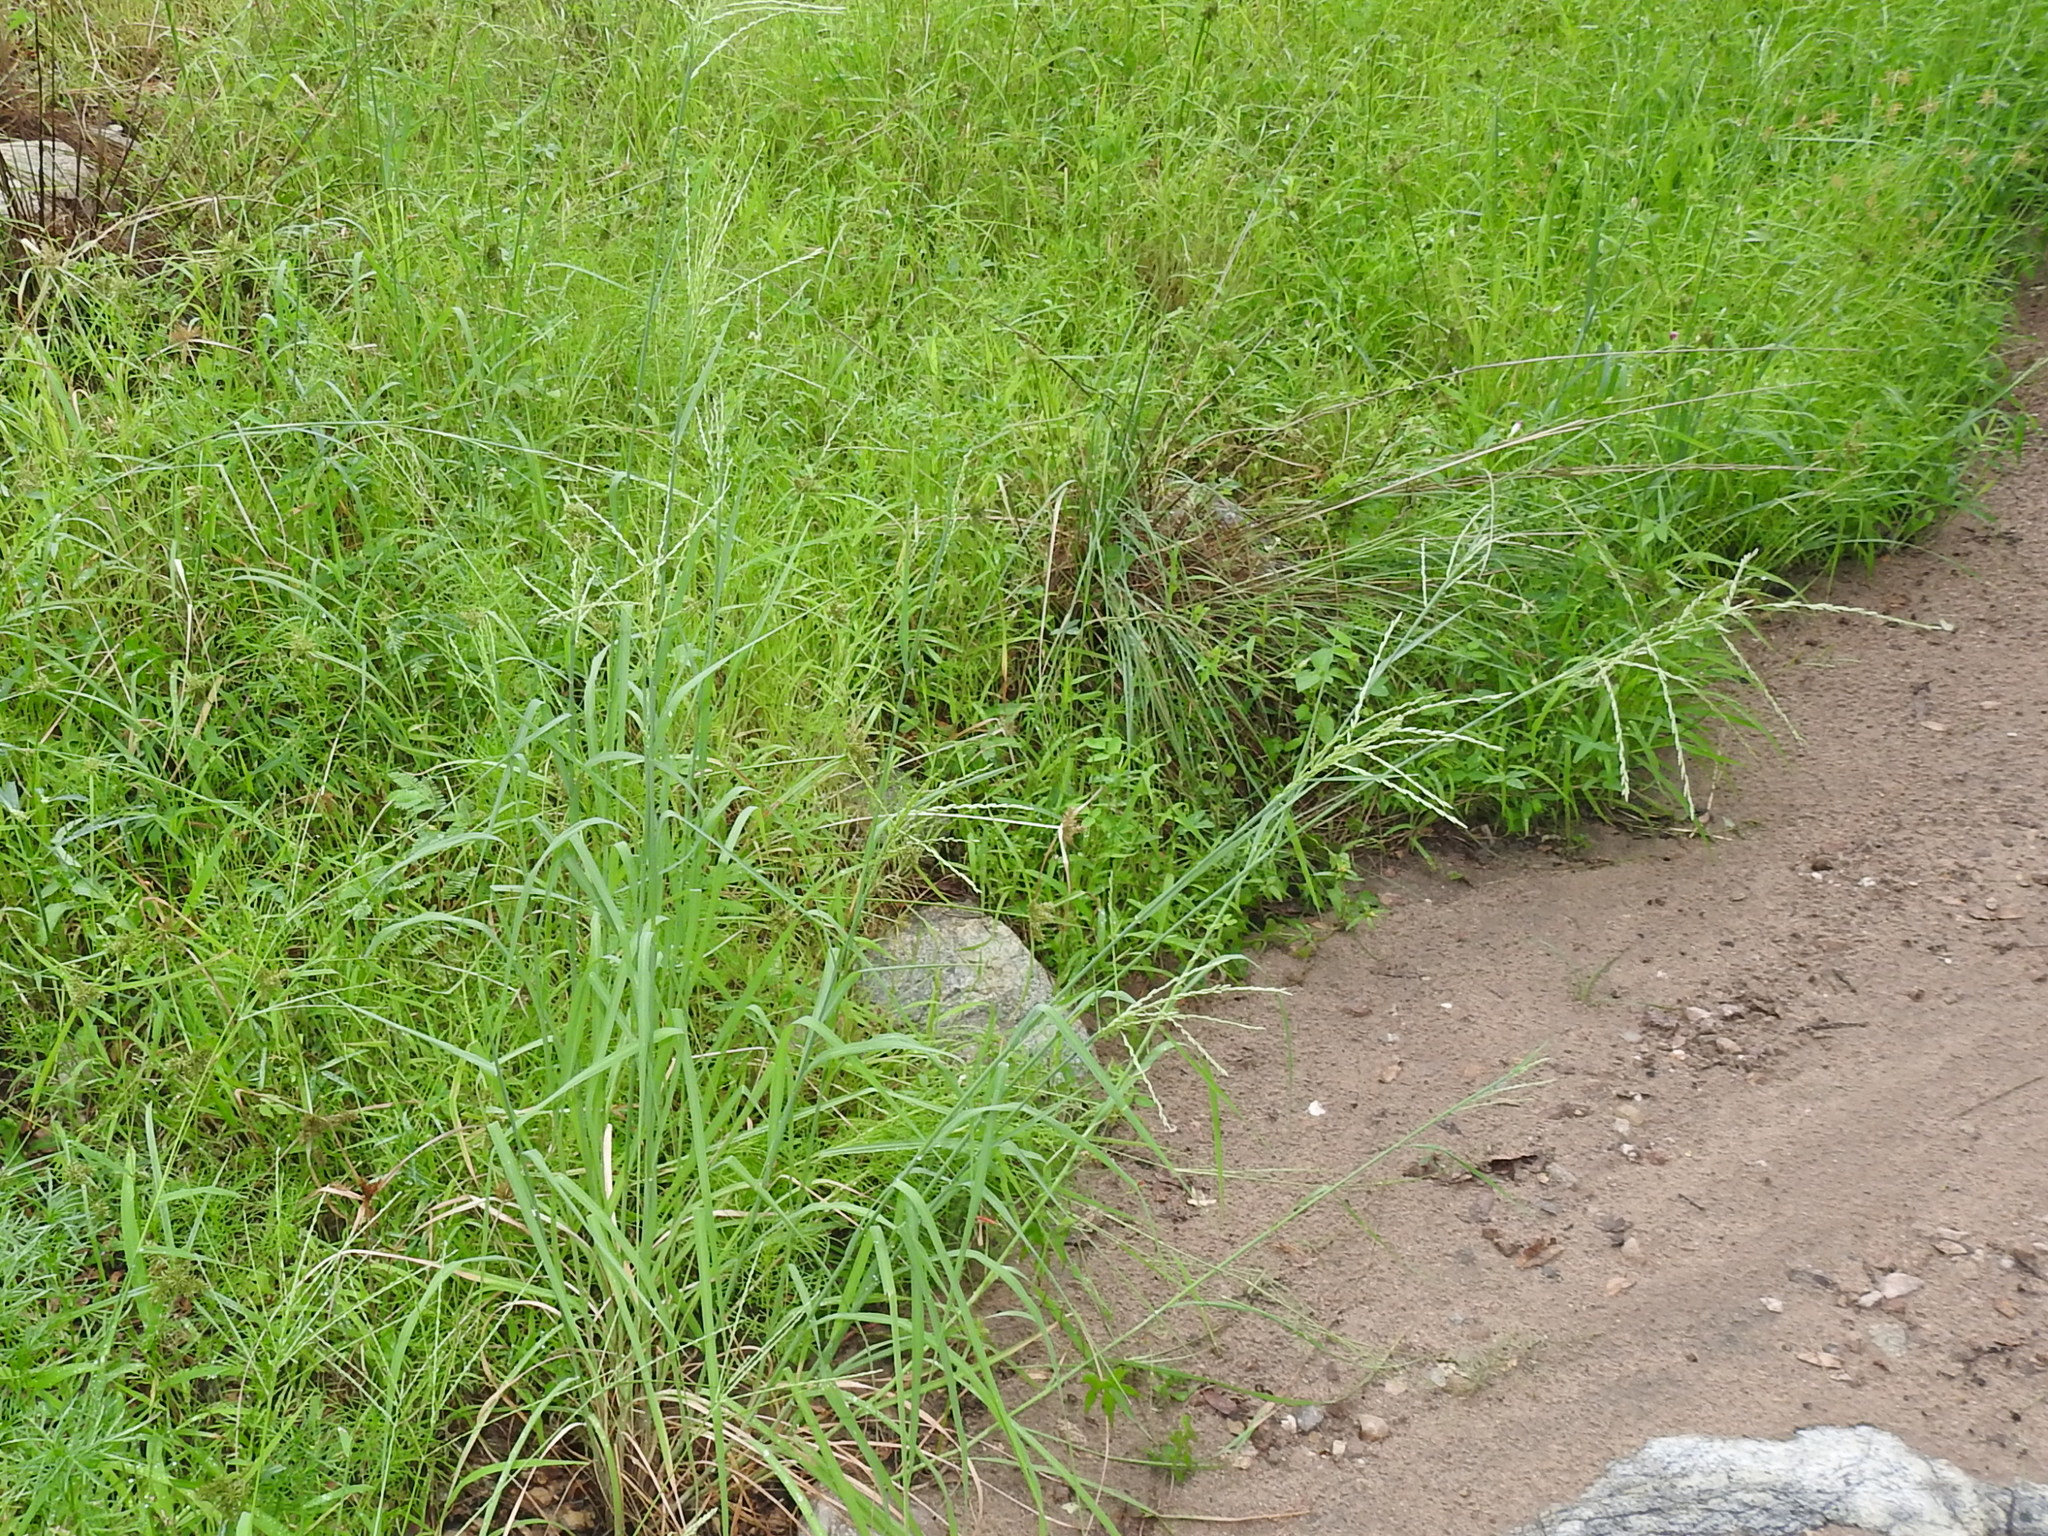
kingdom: Plantae
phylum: Tracheophyta
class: Liliopsida
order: Poales
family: Poaceae
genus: Disakisperma
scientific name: Disakisperma dubium
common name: Green sprangletop
